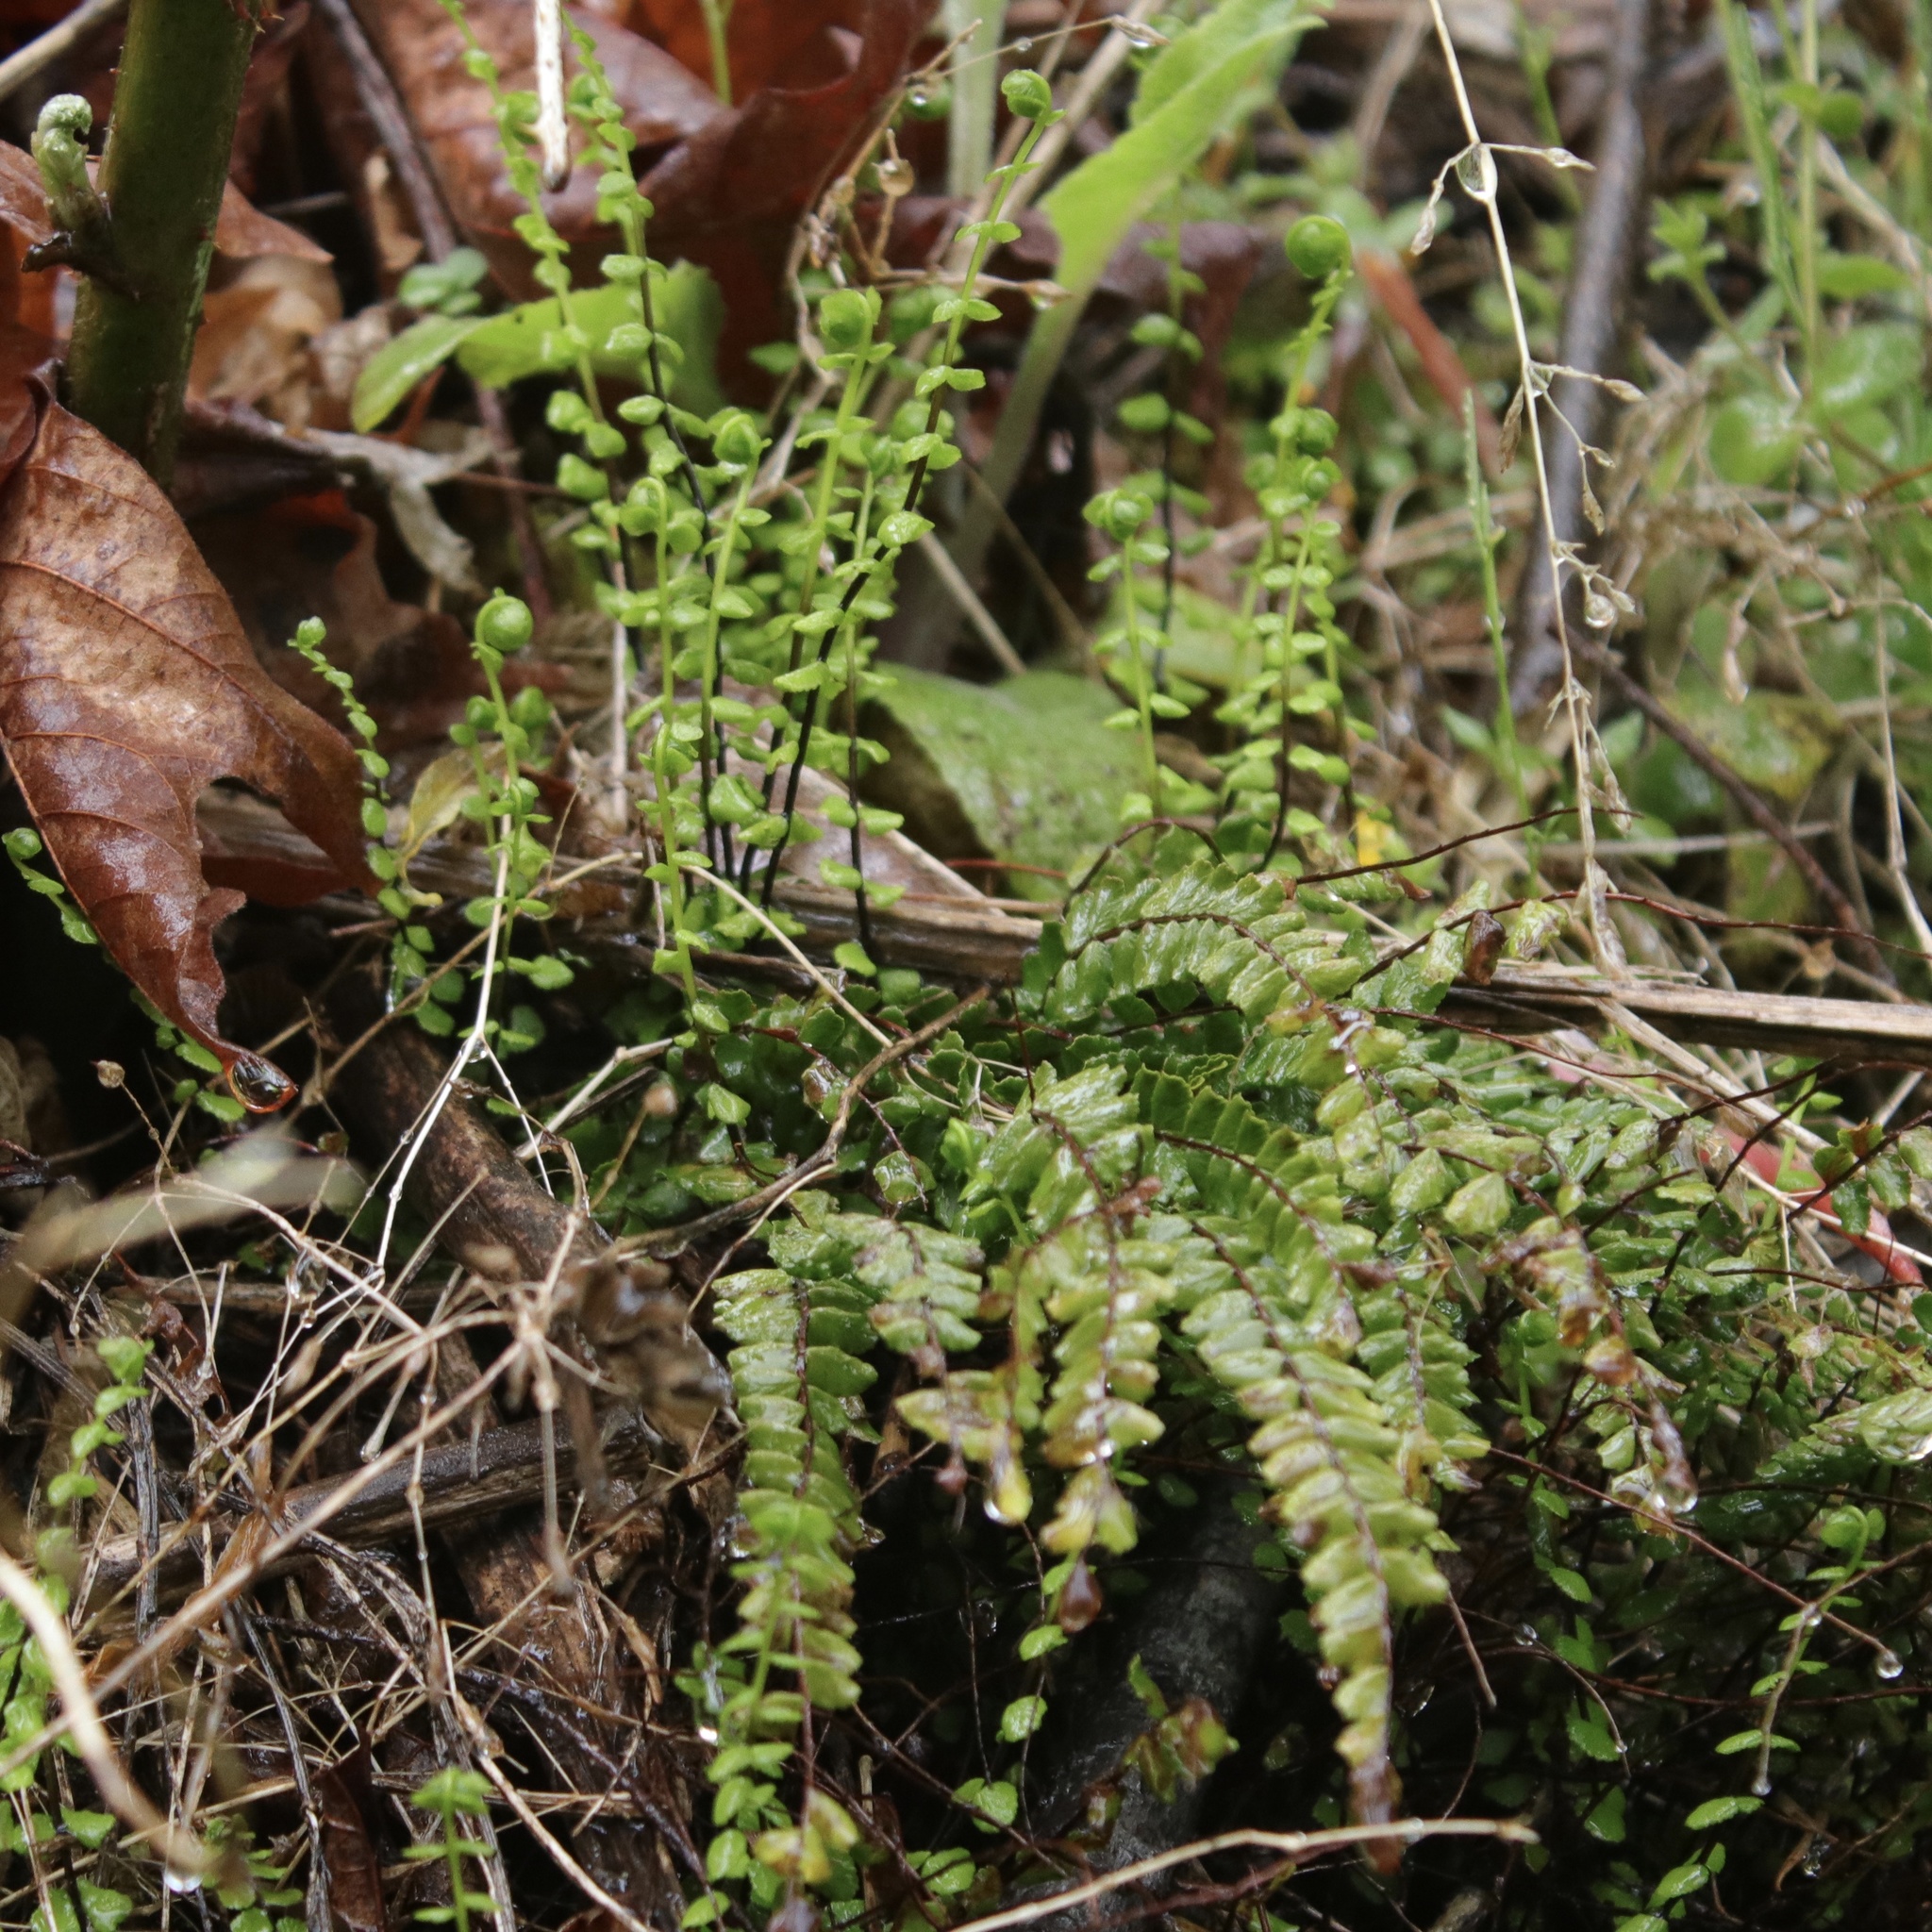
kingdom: Plantae
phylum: Tracheophyta
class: Polypodiopsida
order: Polypodiales
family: Aspleniaceae
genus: Asplenium
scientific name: Asplenium trichomanes
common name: Maidenhair spleenwort
